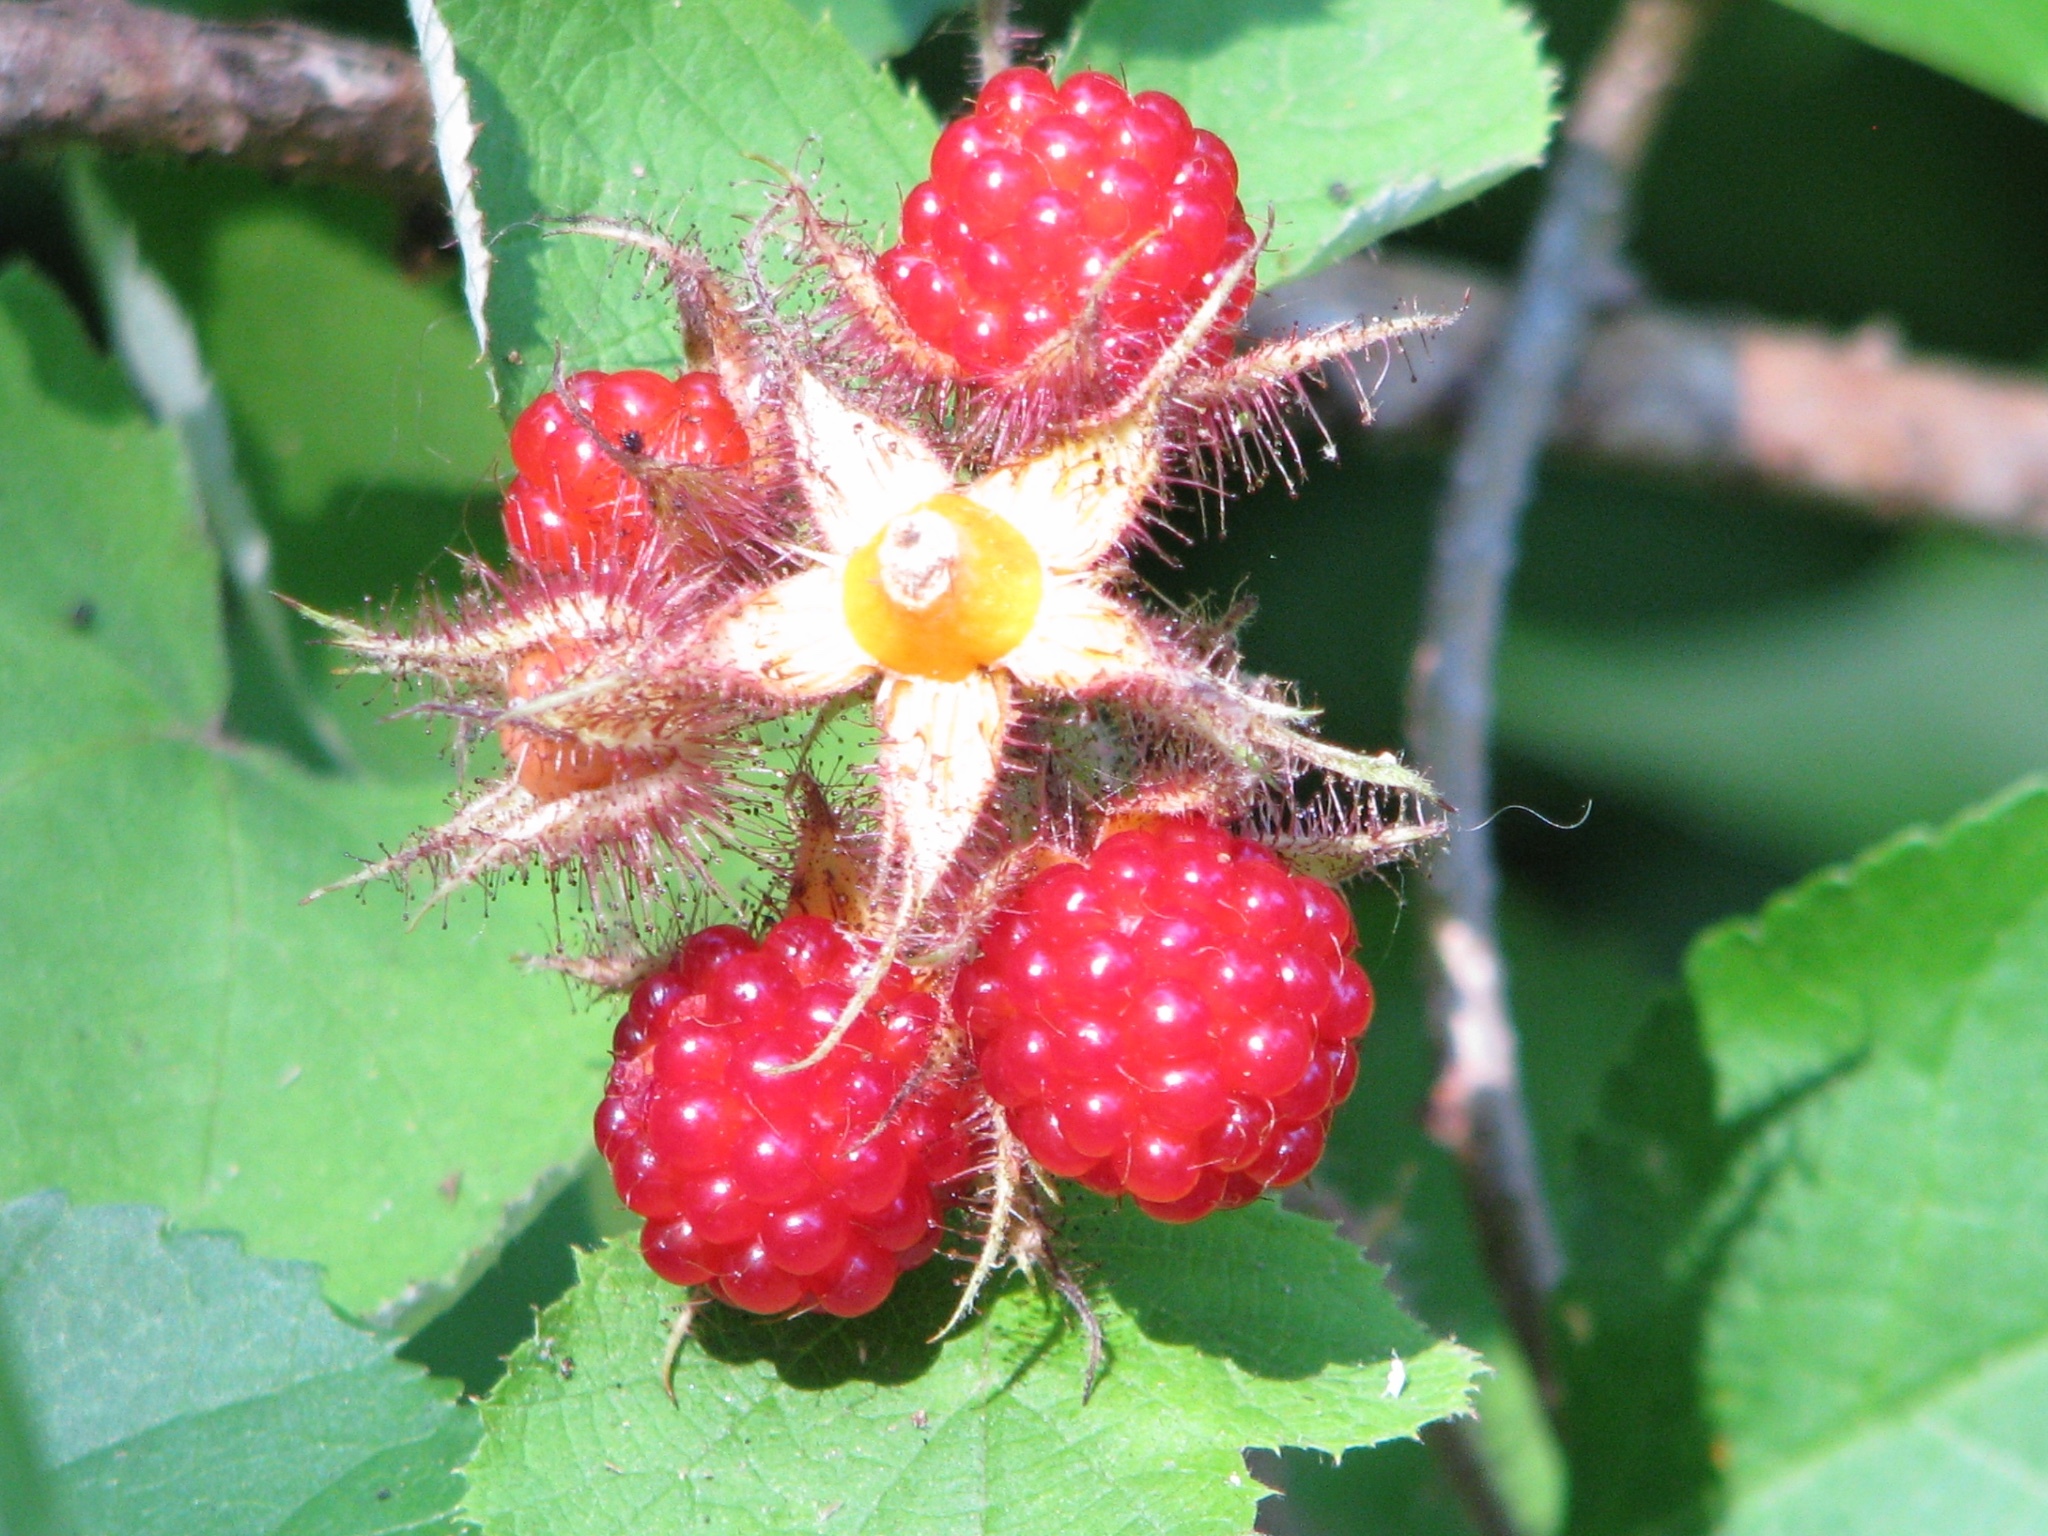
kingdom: Plantae
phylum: Tracheophyta
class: Magnoliopsida
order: Rosales
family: Rosaceae
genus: Rubus
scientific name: Rubus phoenicolasius
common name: Japanese wineberry
